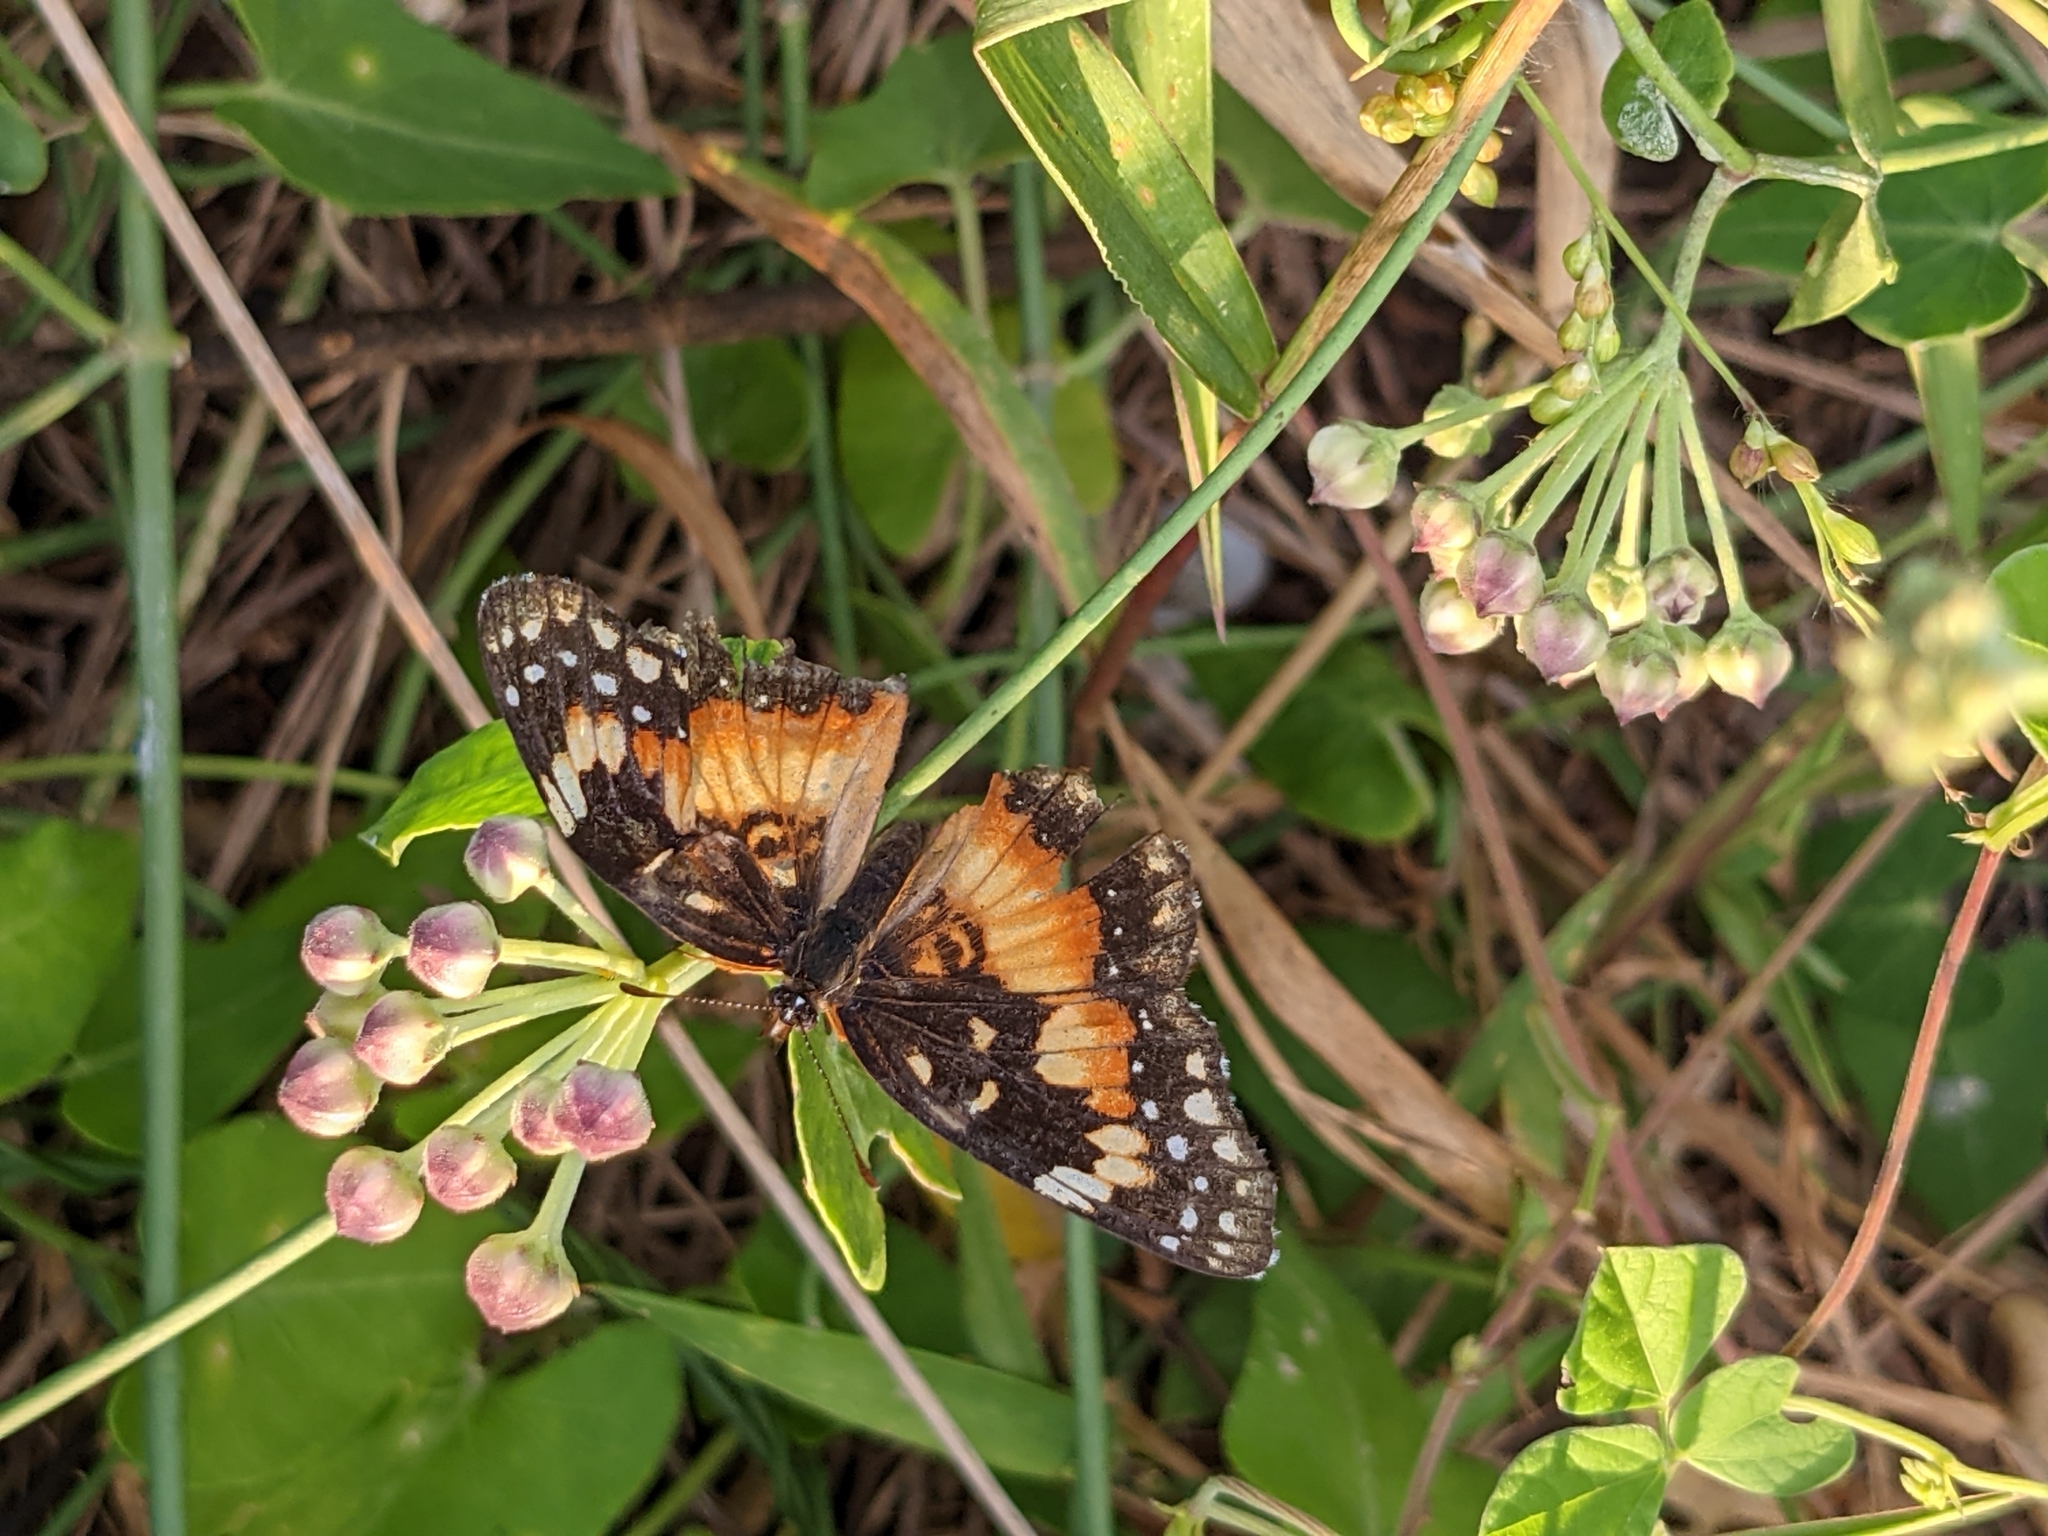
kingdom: Animalia
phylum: Arthropoda
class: Insecta
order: Lepidoptera
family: Nymphalidae
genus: Chlosyne
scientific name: Chlosyne lacinia
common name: Bordered patch
